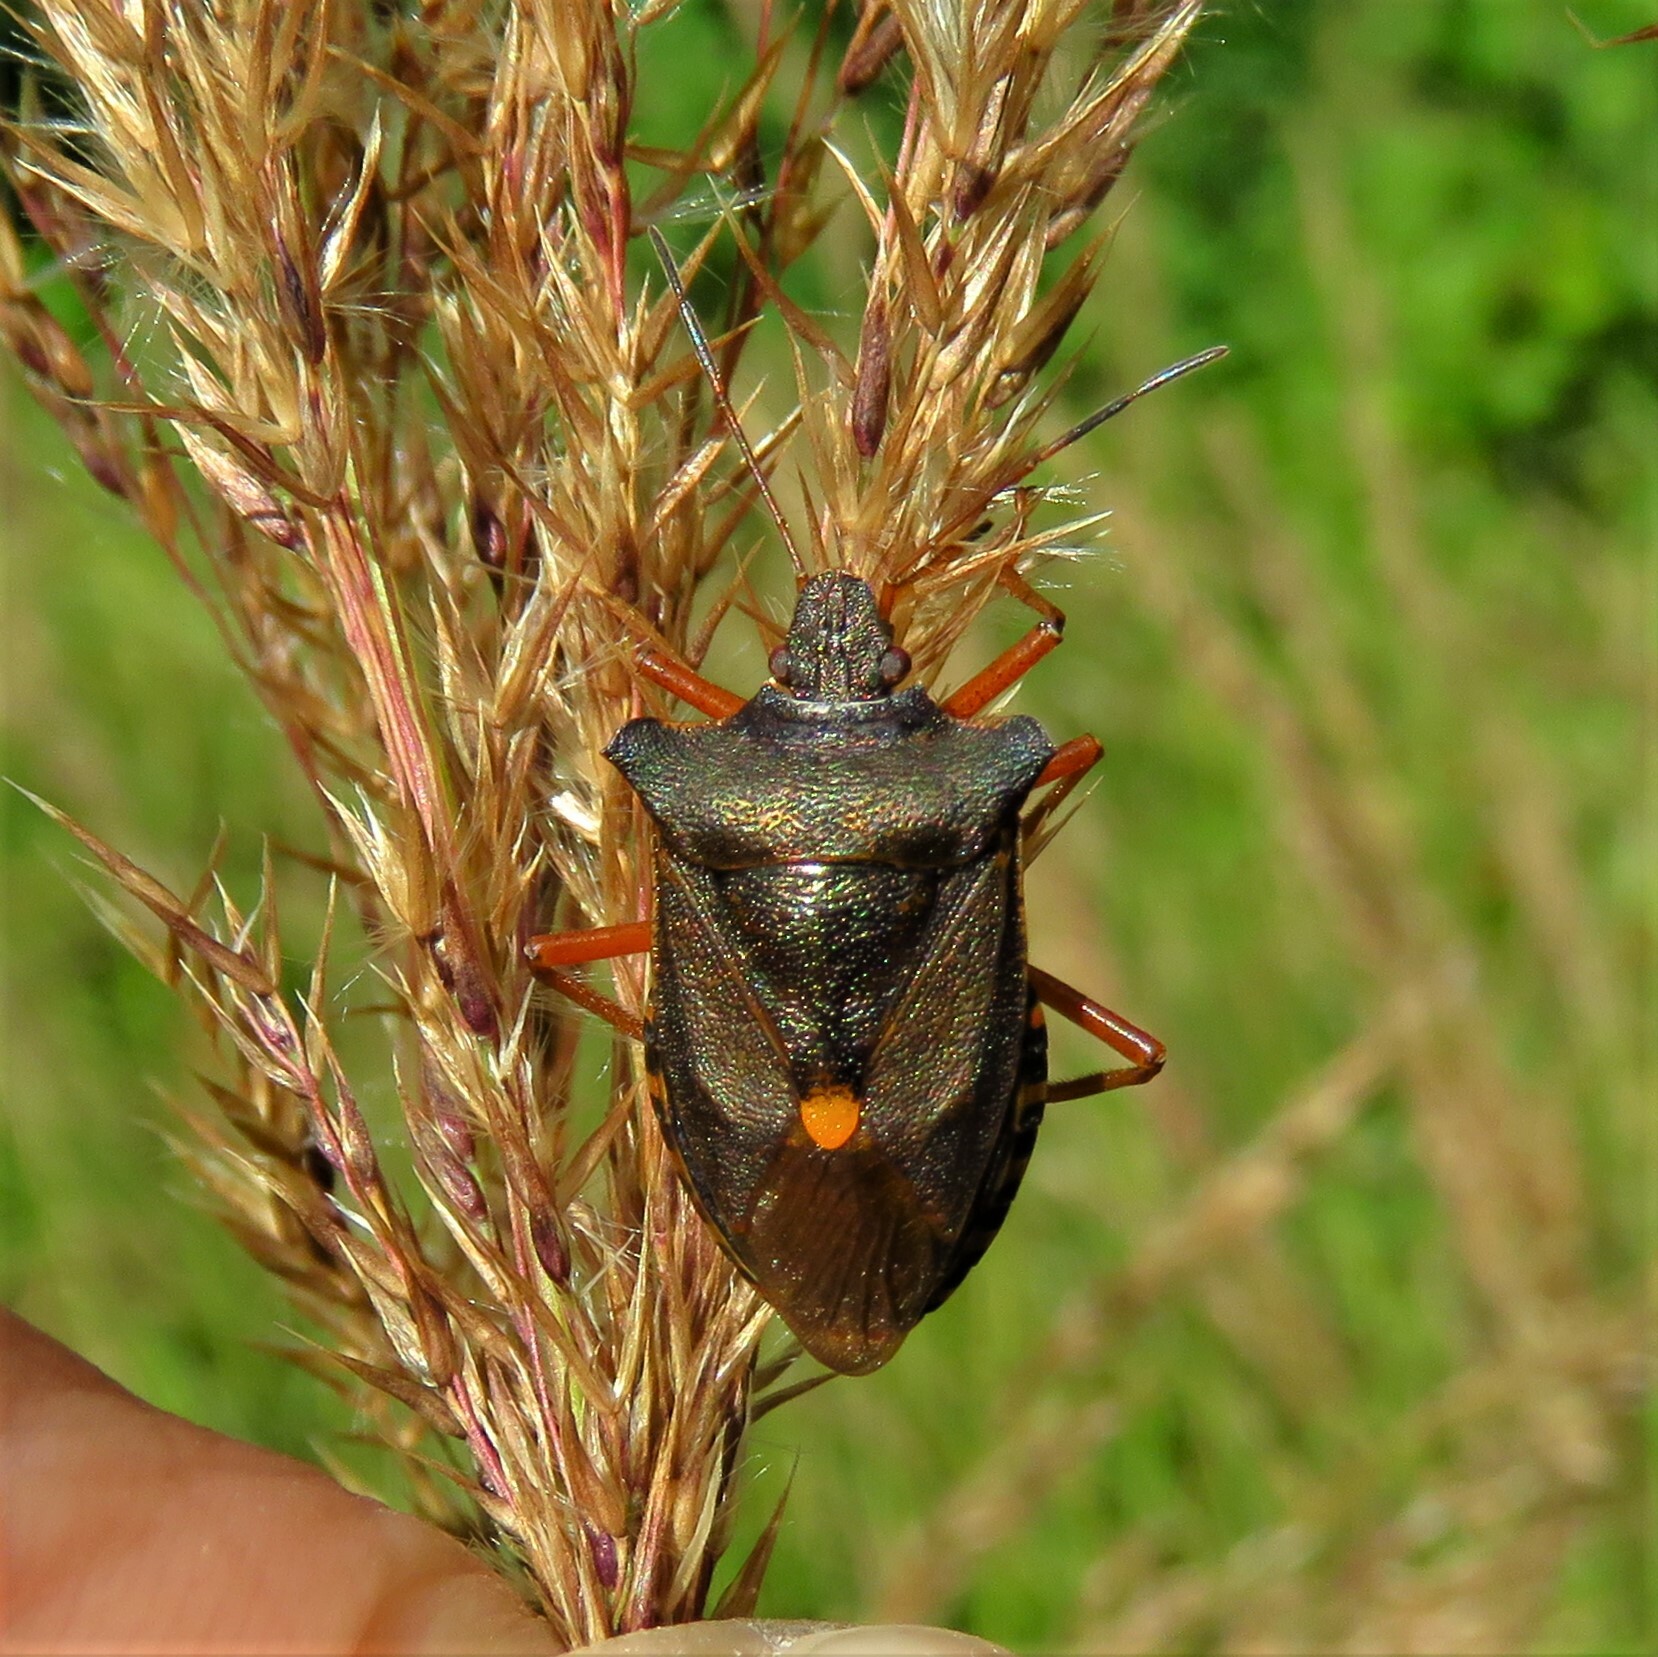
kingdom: Animalia
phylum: Arthropoda
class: Insecta
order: Hemiptera
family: Pentatomidae
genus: Pentatoma
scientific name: Pentatoma rufipes
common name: Forest bug
